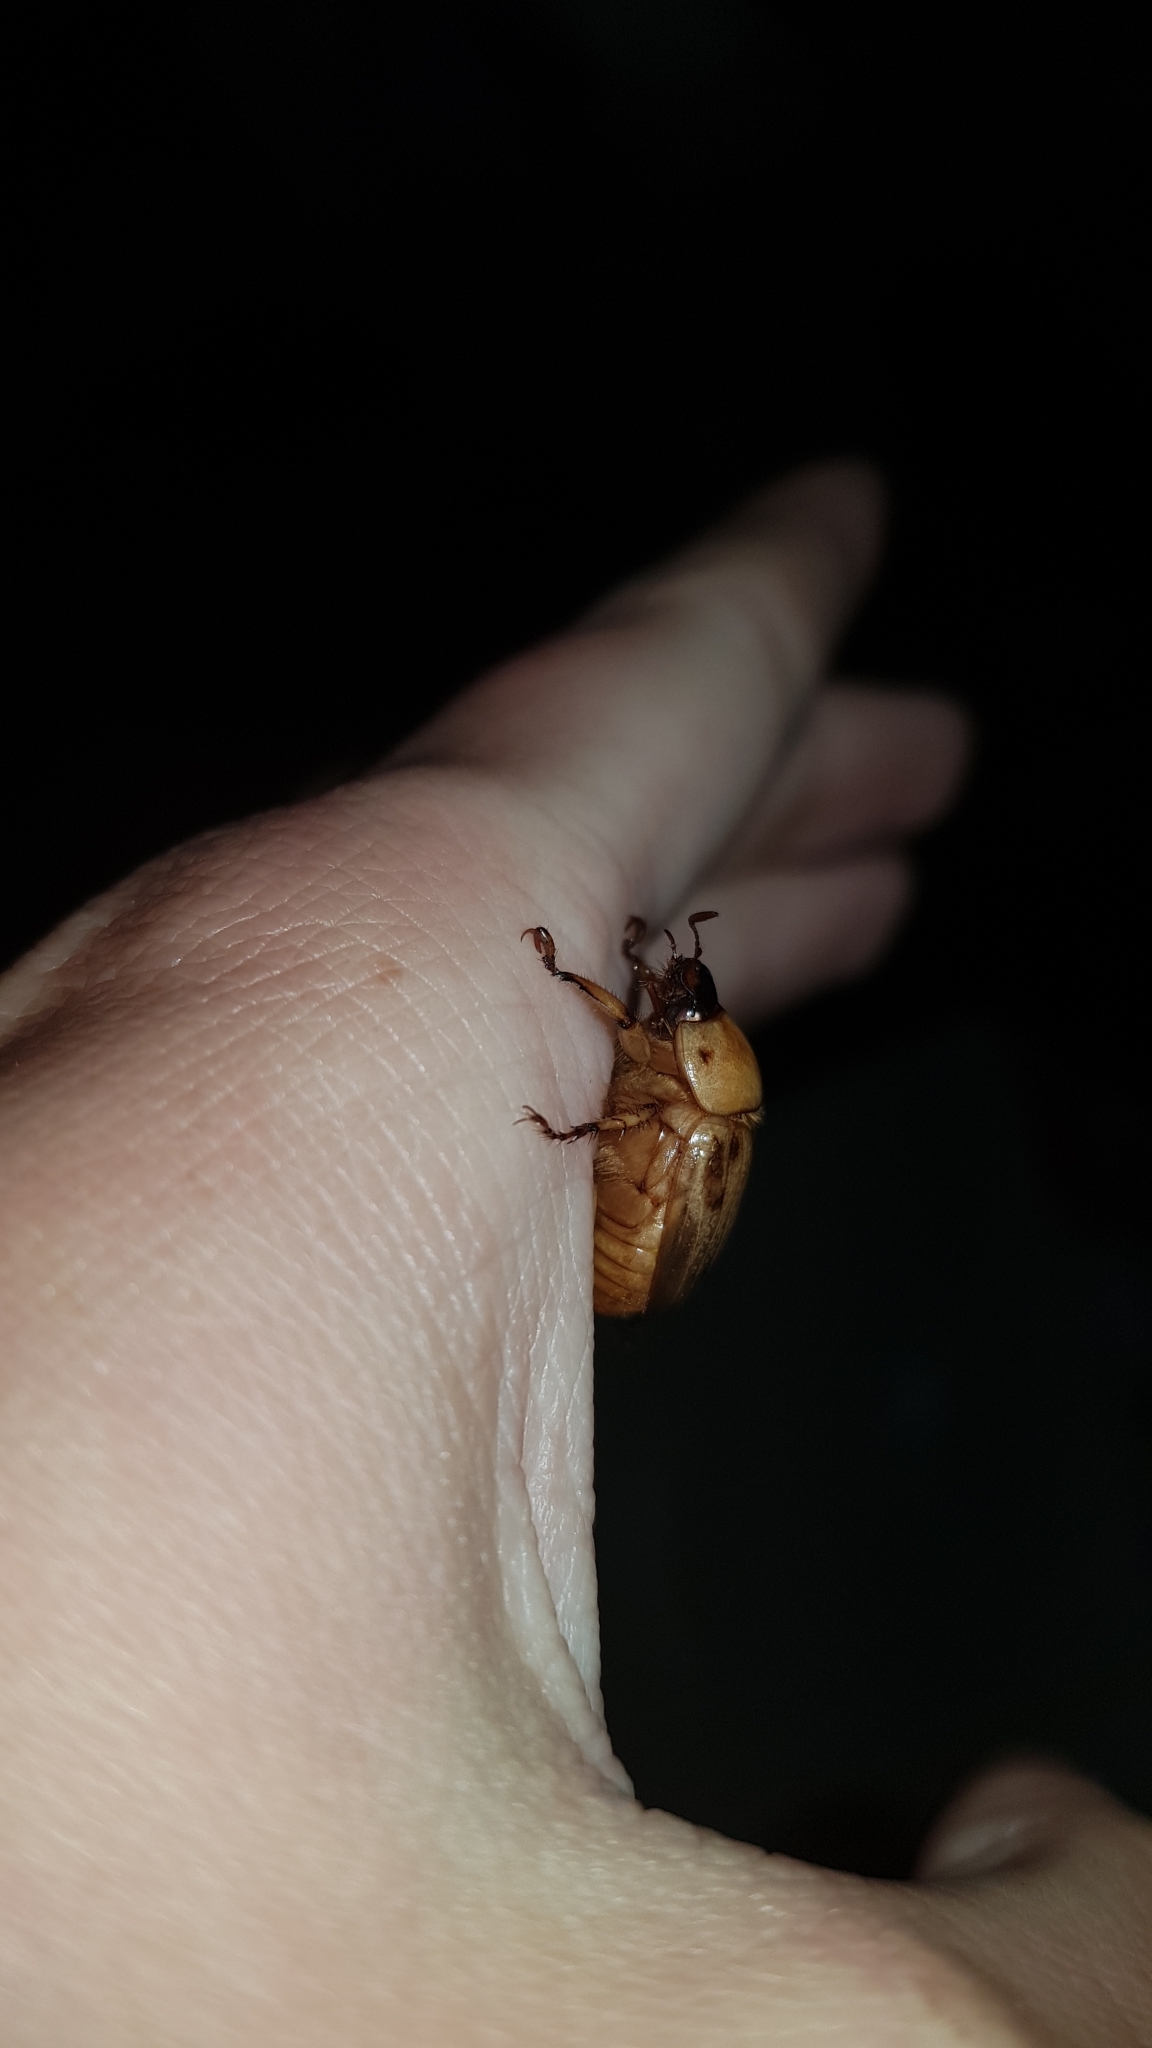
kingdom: Animalia
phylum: Arthropoda
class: Insecta
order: Coleoptera
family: Scarabaeidae
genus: Cyclocephala
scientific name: Cyclocephala signaticollis
